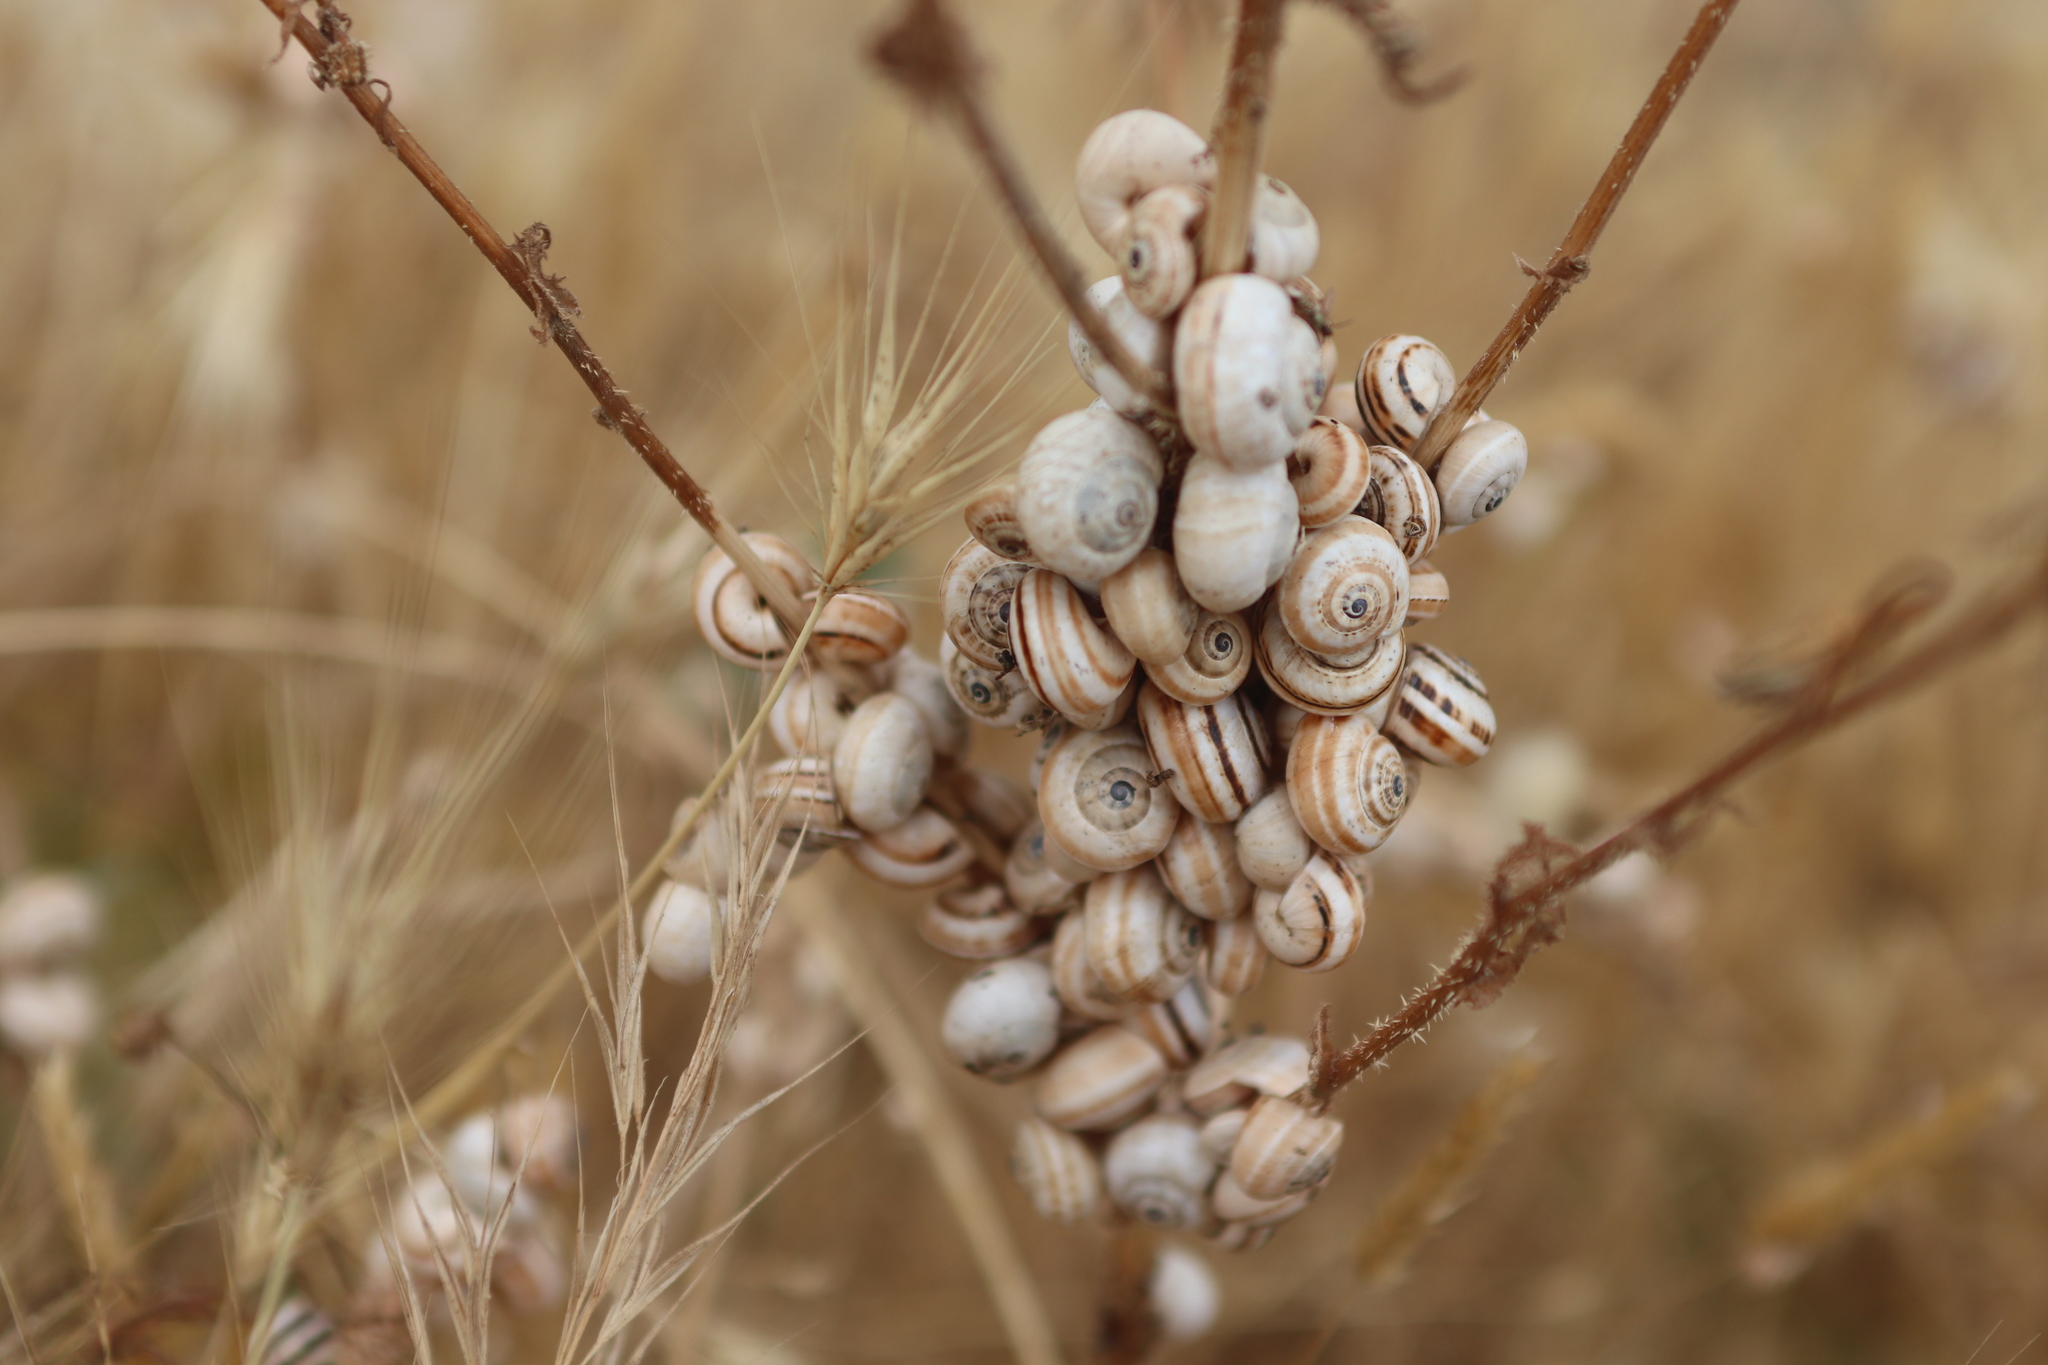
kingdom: Animalia
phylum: Mollusca
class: Gastropoda
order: Stylommatophora
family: Helicidae
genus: Theba
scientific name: Theba pisana
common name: White snail
